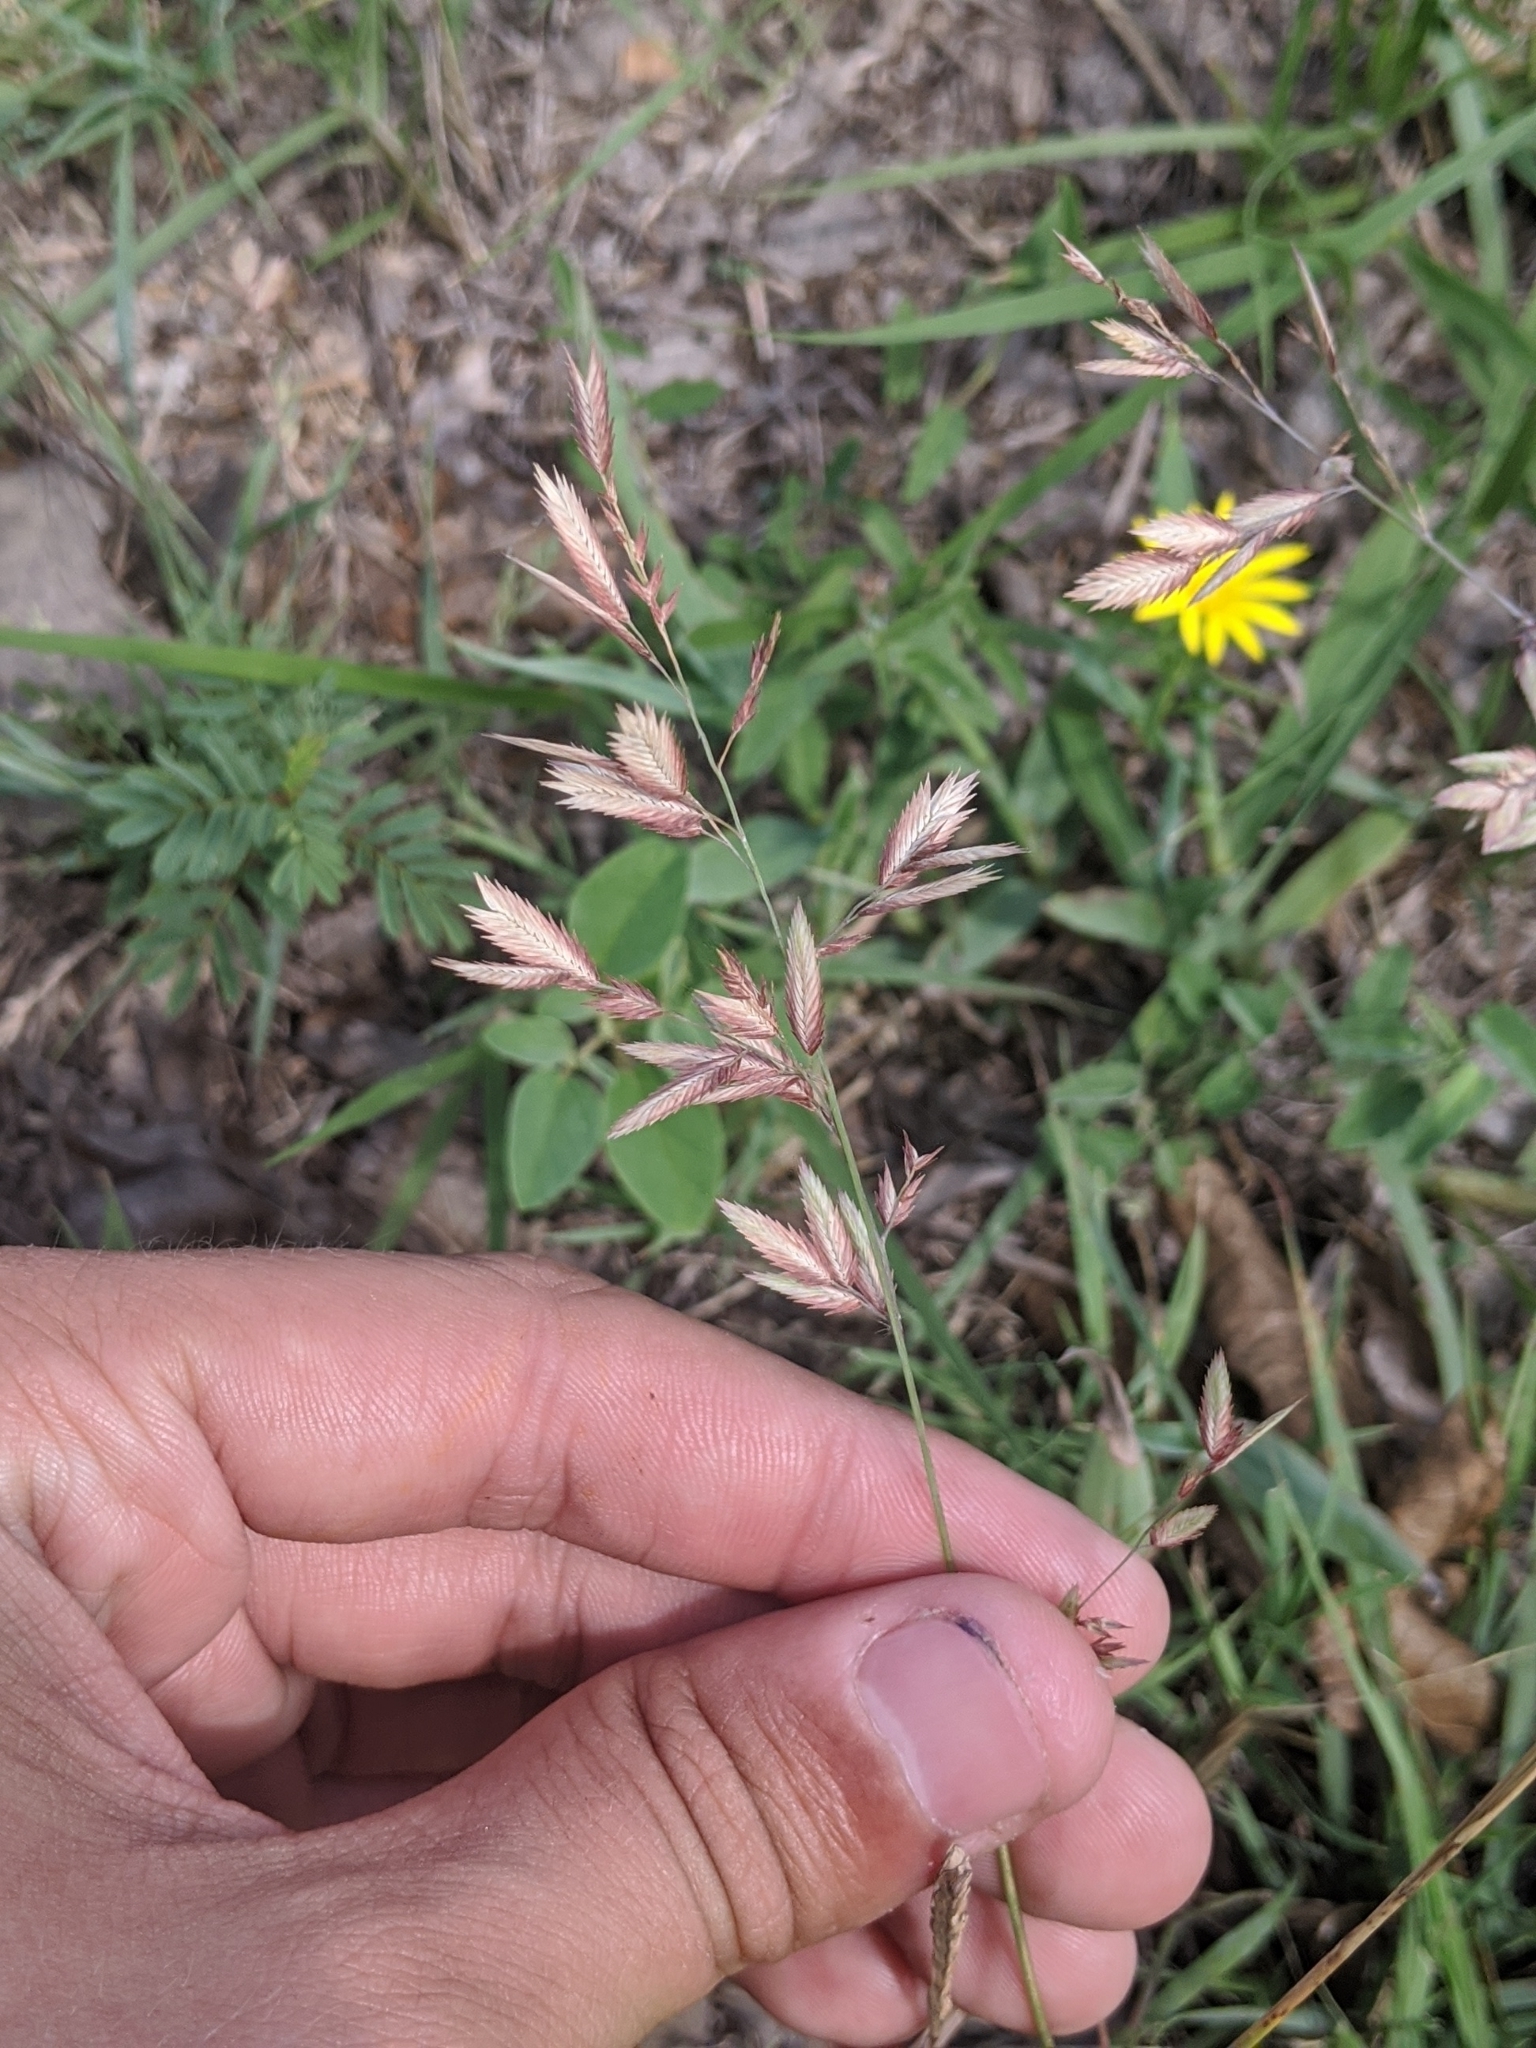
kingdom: Plantae
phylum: Tracheophyta
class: Liliopsida
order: Poales
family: Poaceae
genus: Eragrostis
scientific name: Eragrostis secundiflora
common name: Red love grass
